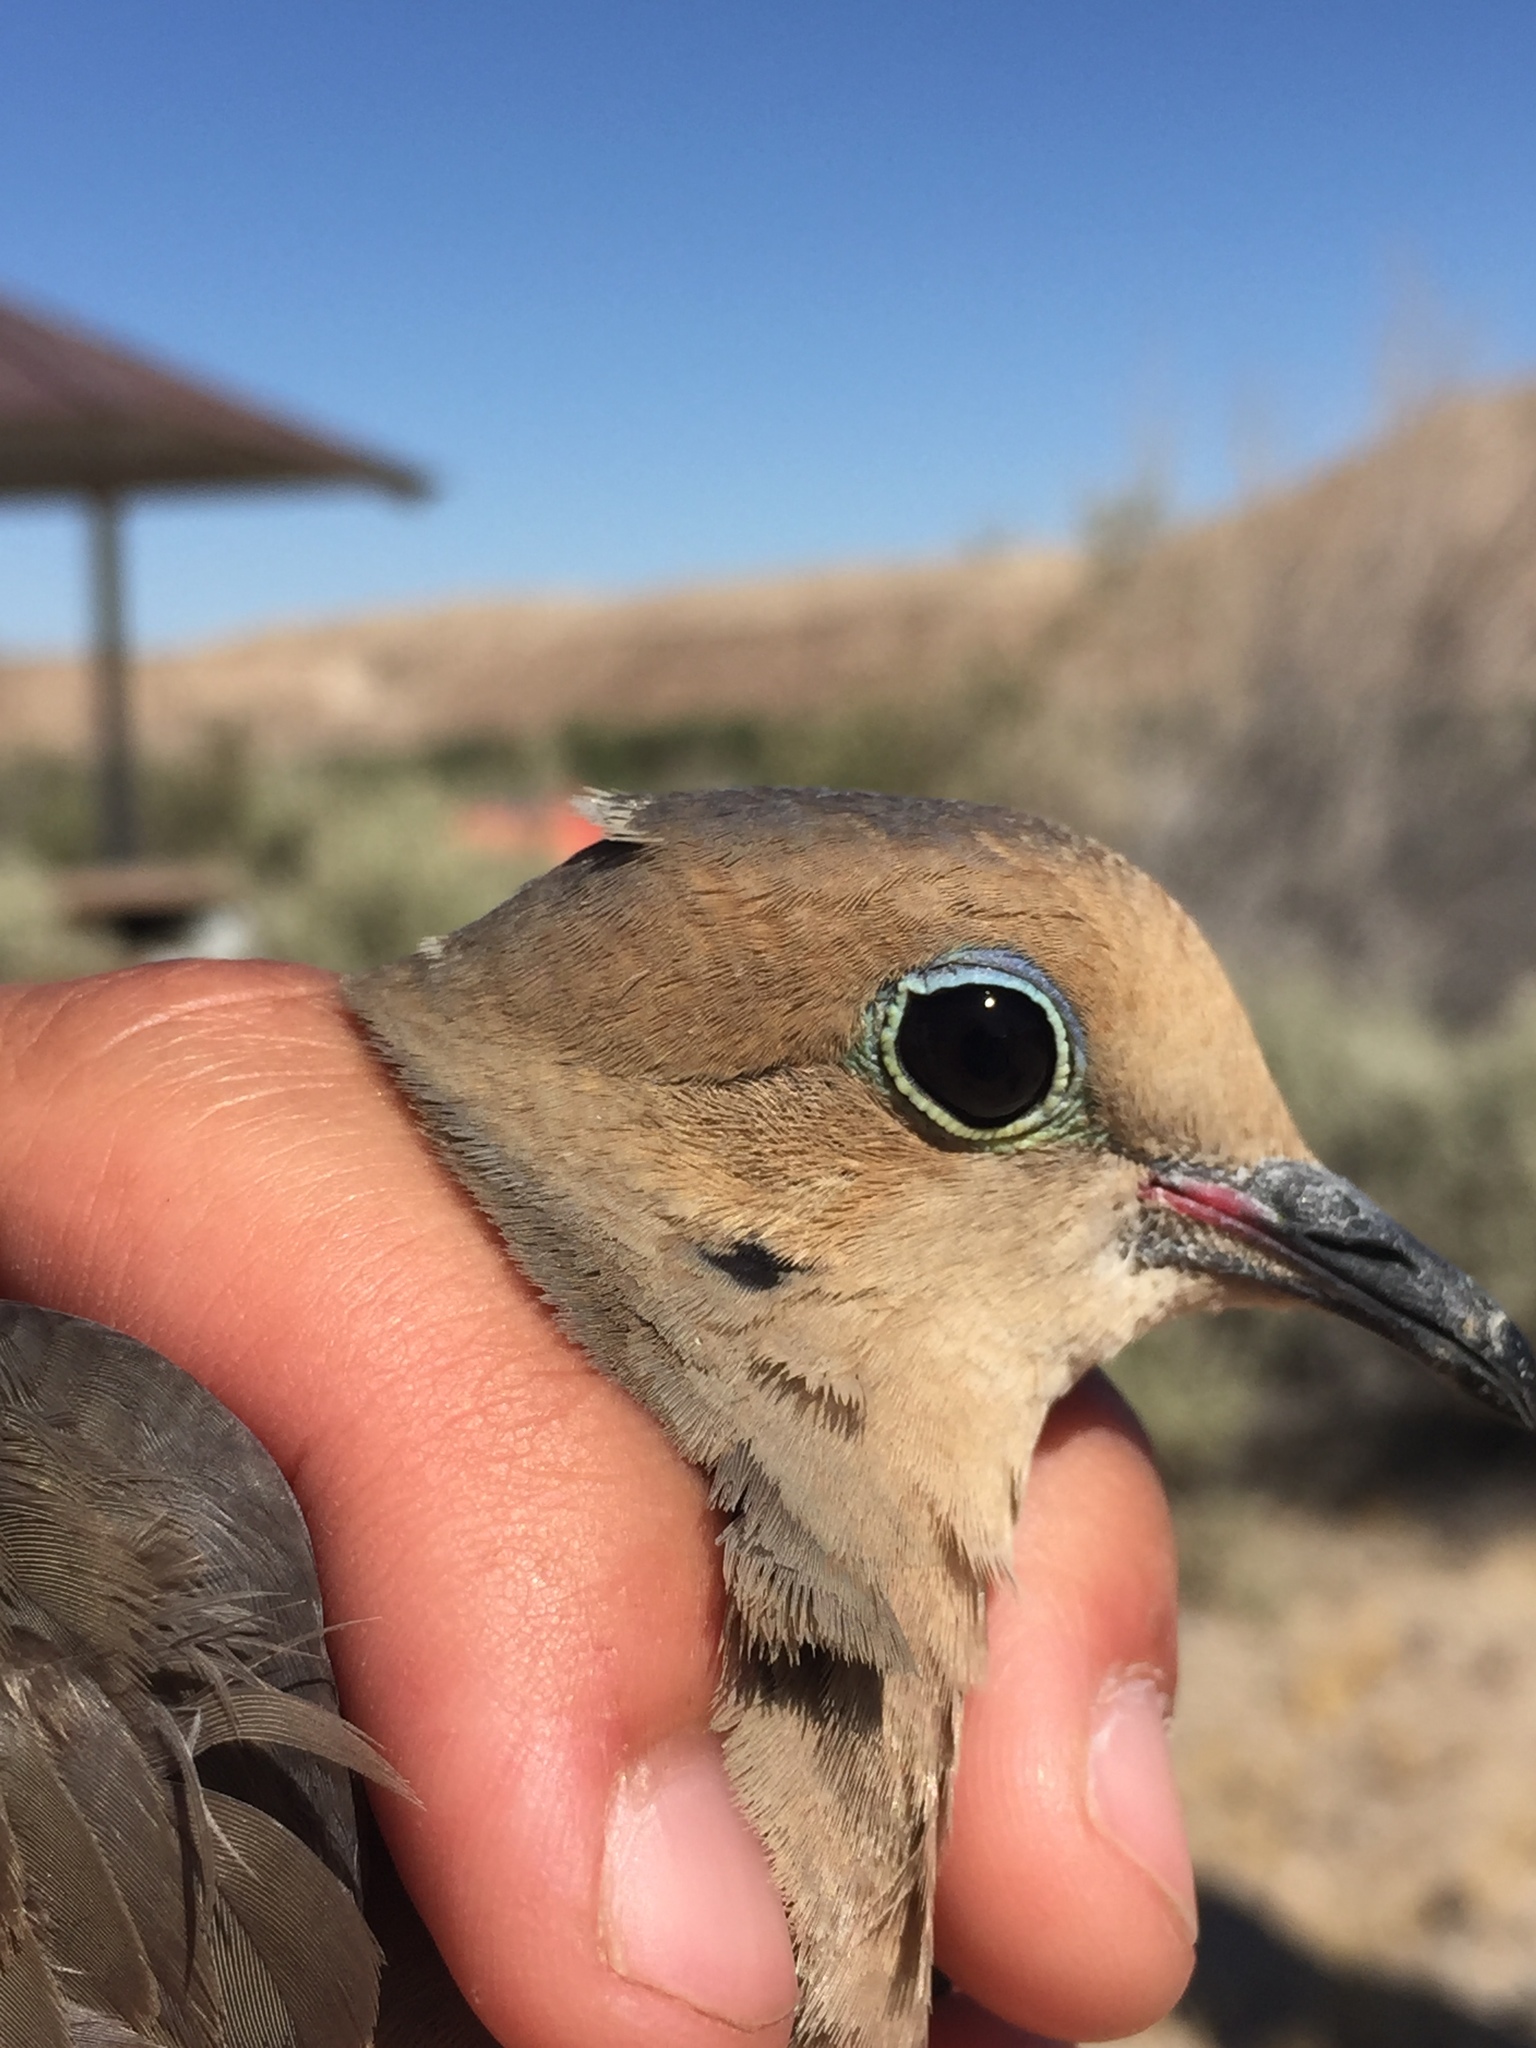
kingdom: Animalia
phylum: Chordata
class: Aves
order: Columbiformes
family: Columbidae
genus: Zenaida
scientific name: Zenaida macroura
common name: Mourning dove
